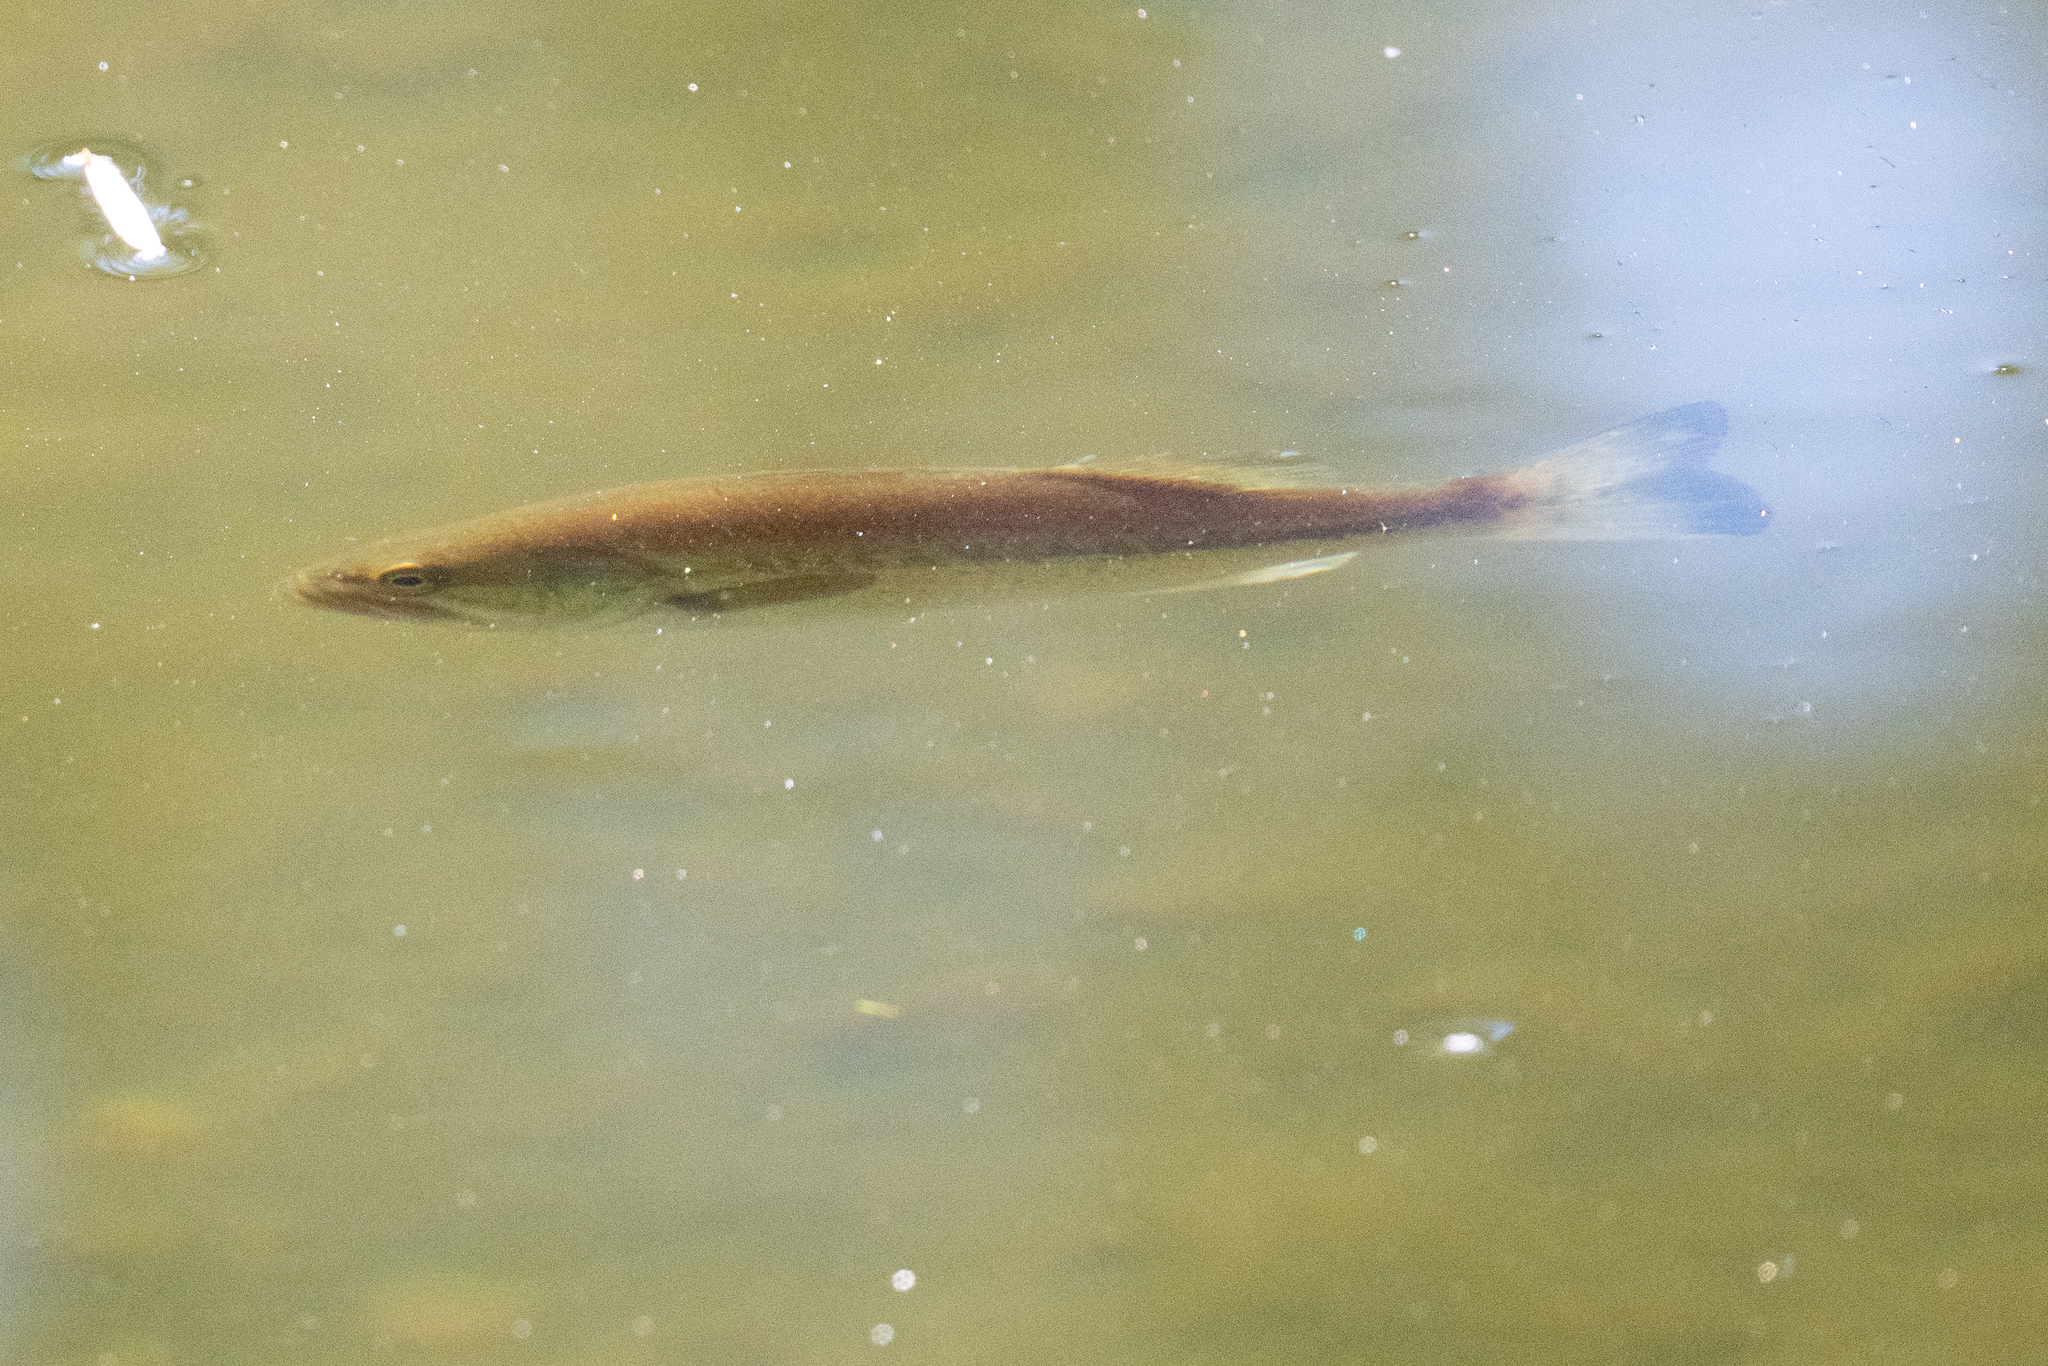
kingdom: Animalia
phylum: Chordata
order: Perciformes
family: Centrarchidae
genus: Micropterus
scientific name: Micropterus
